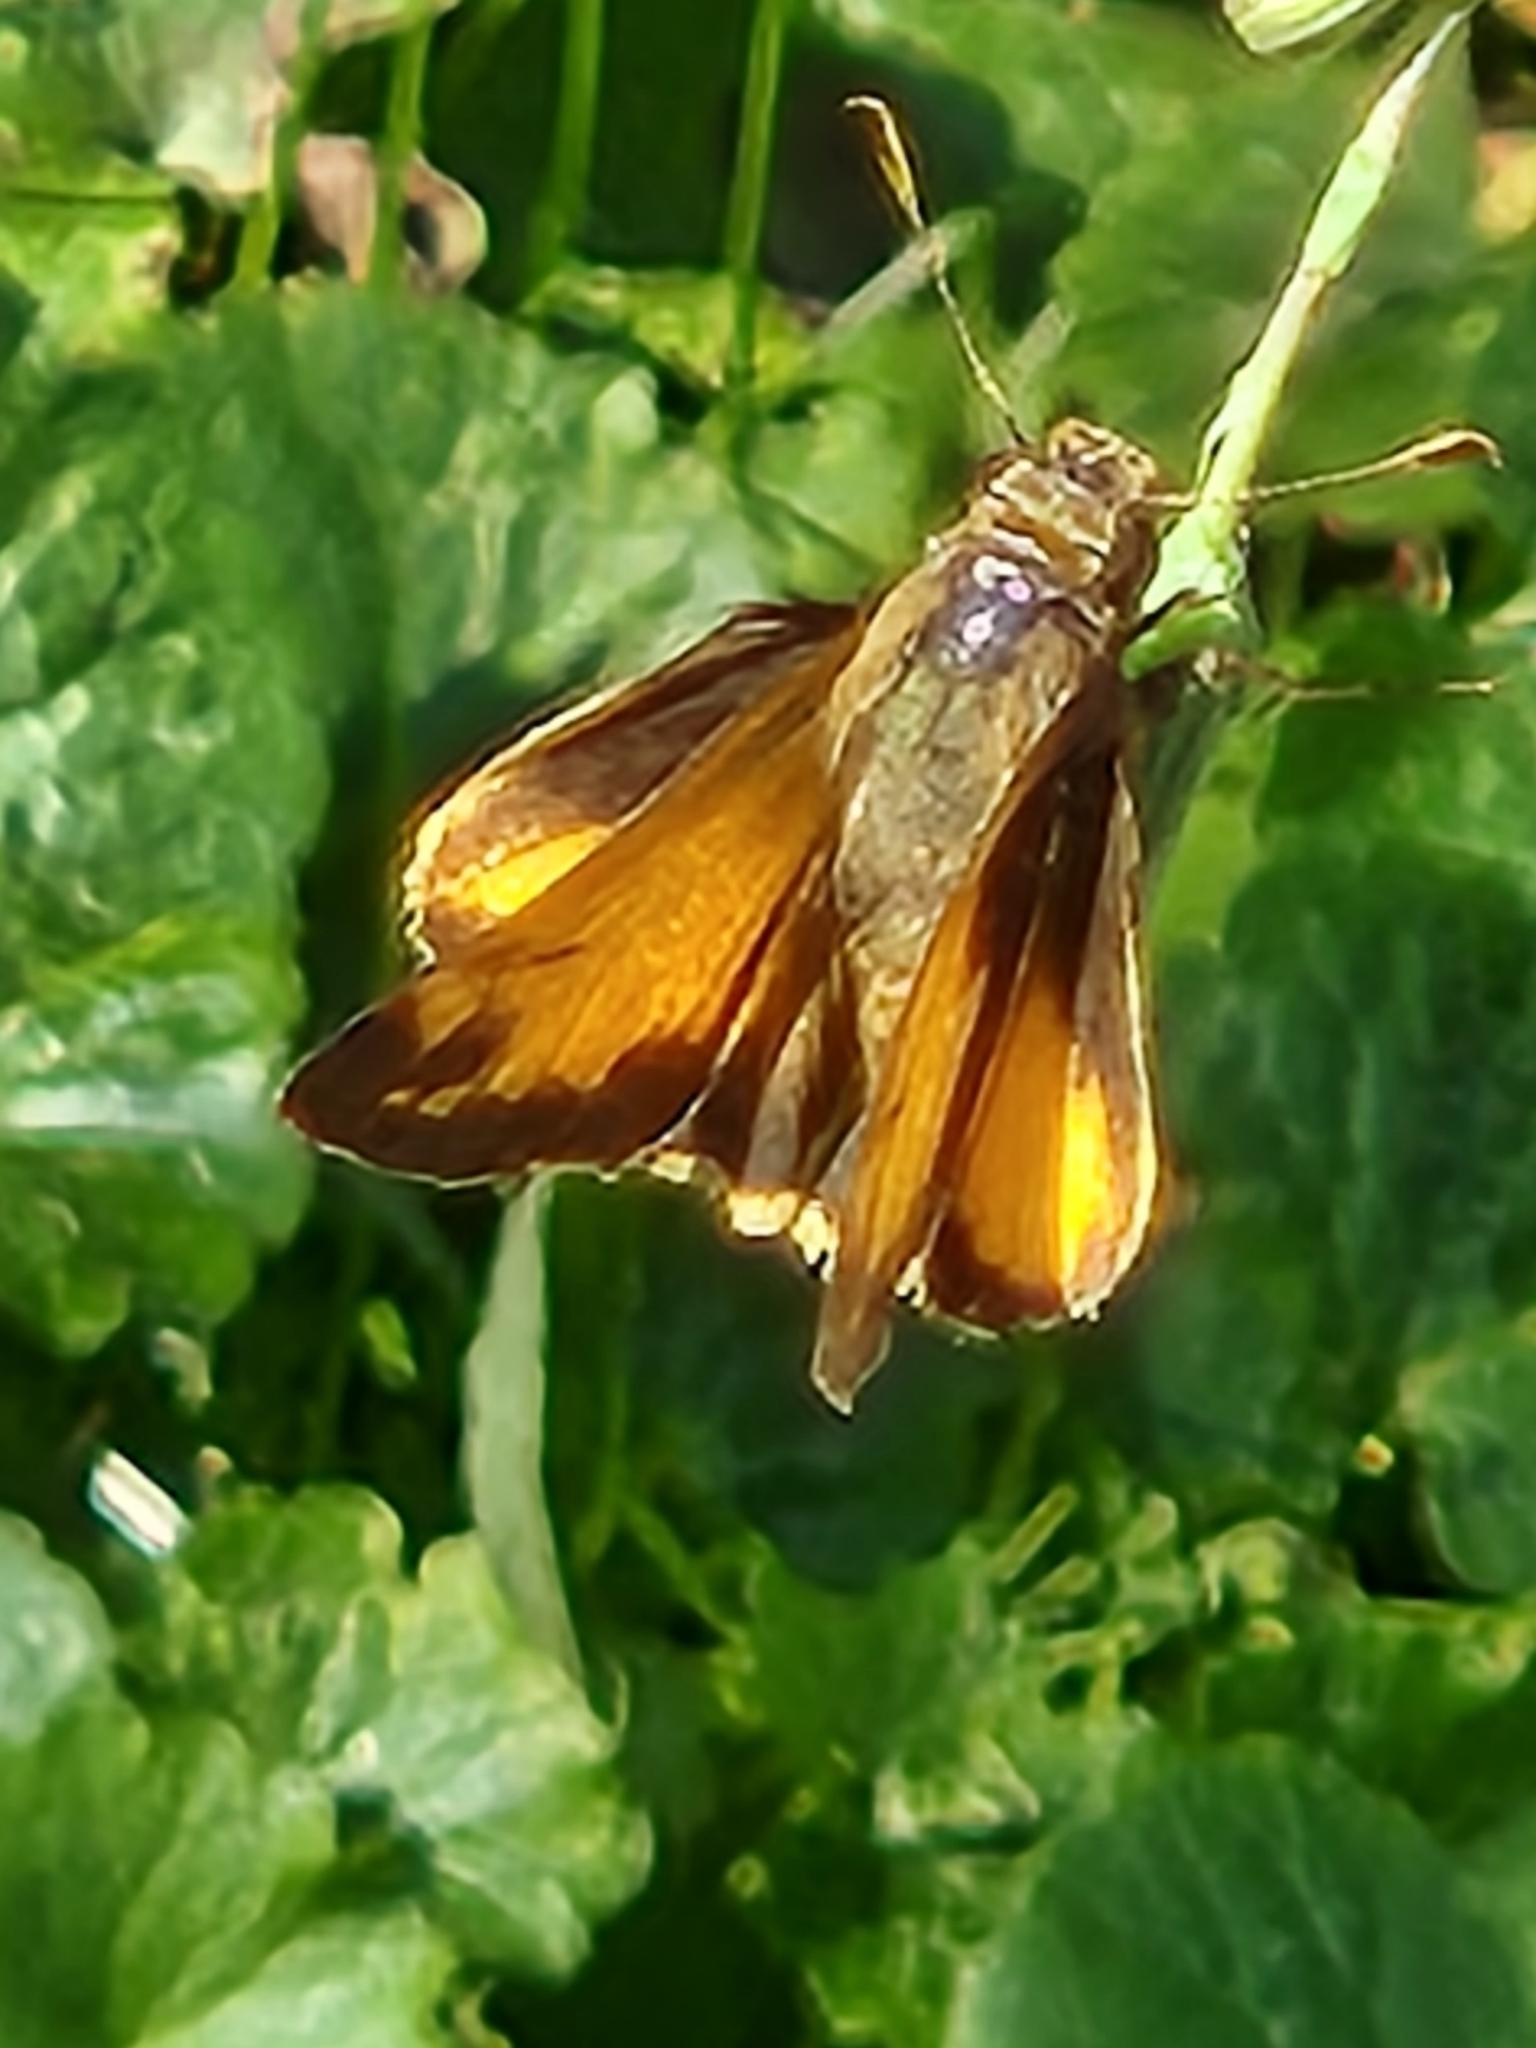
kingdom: Animalia
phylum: Arthropoda
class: Insecta
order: Lepidoptera
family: Hesperiidae
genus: Lon
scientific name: Lon zabulon
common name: Zabulon skipper
